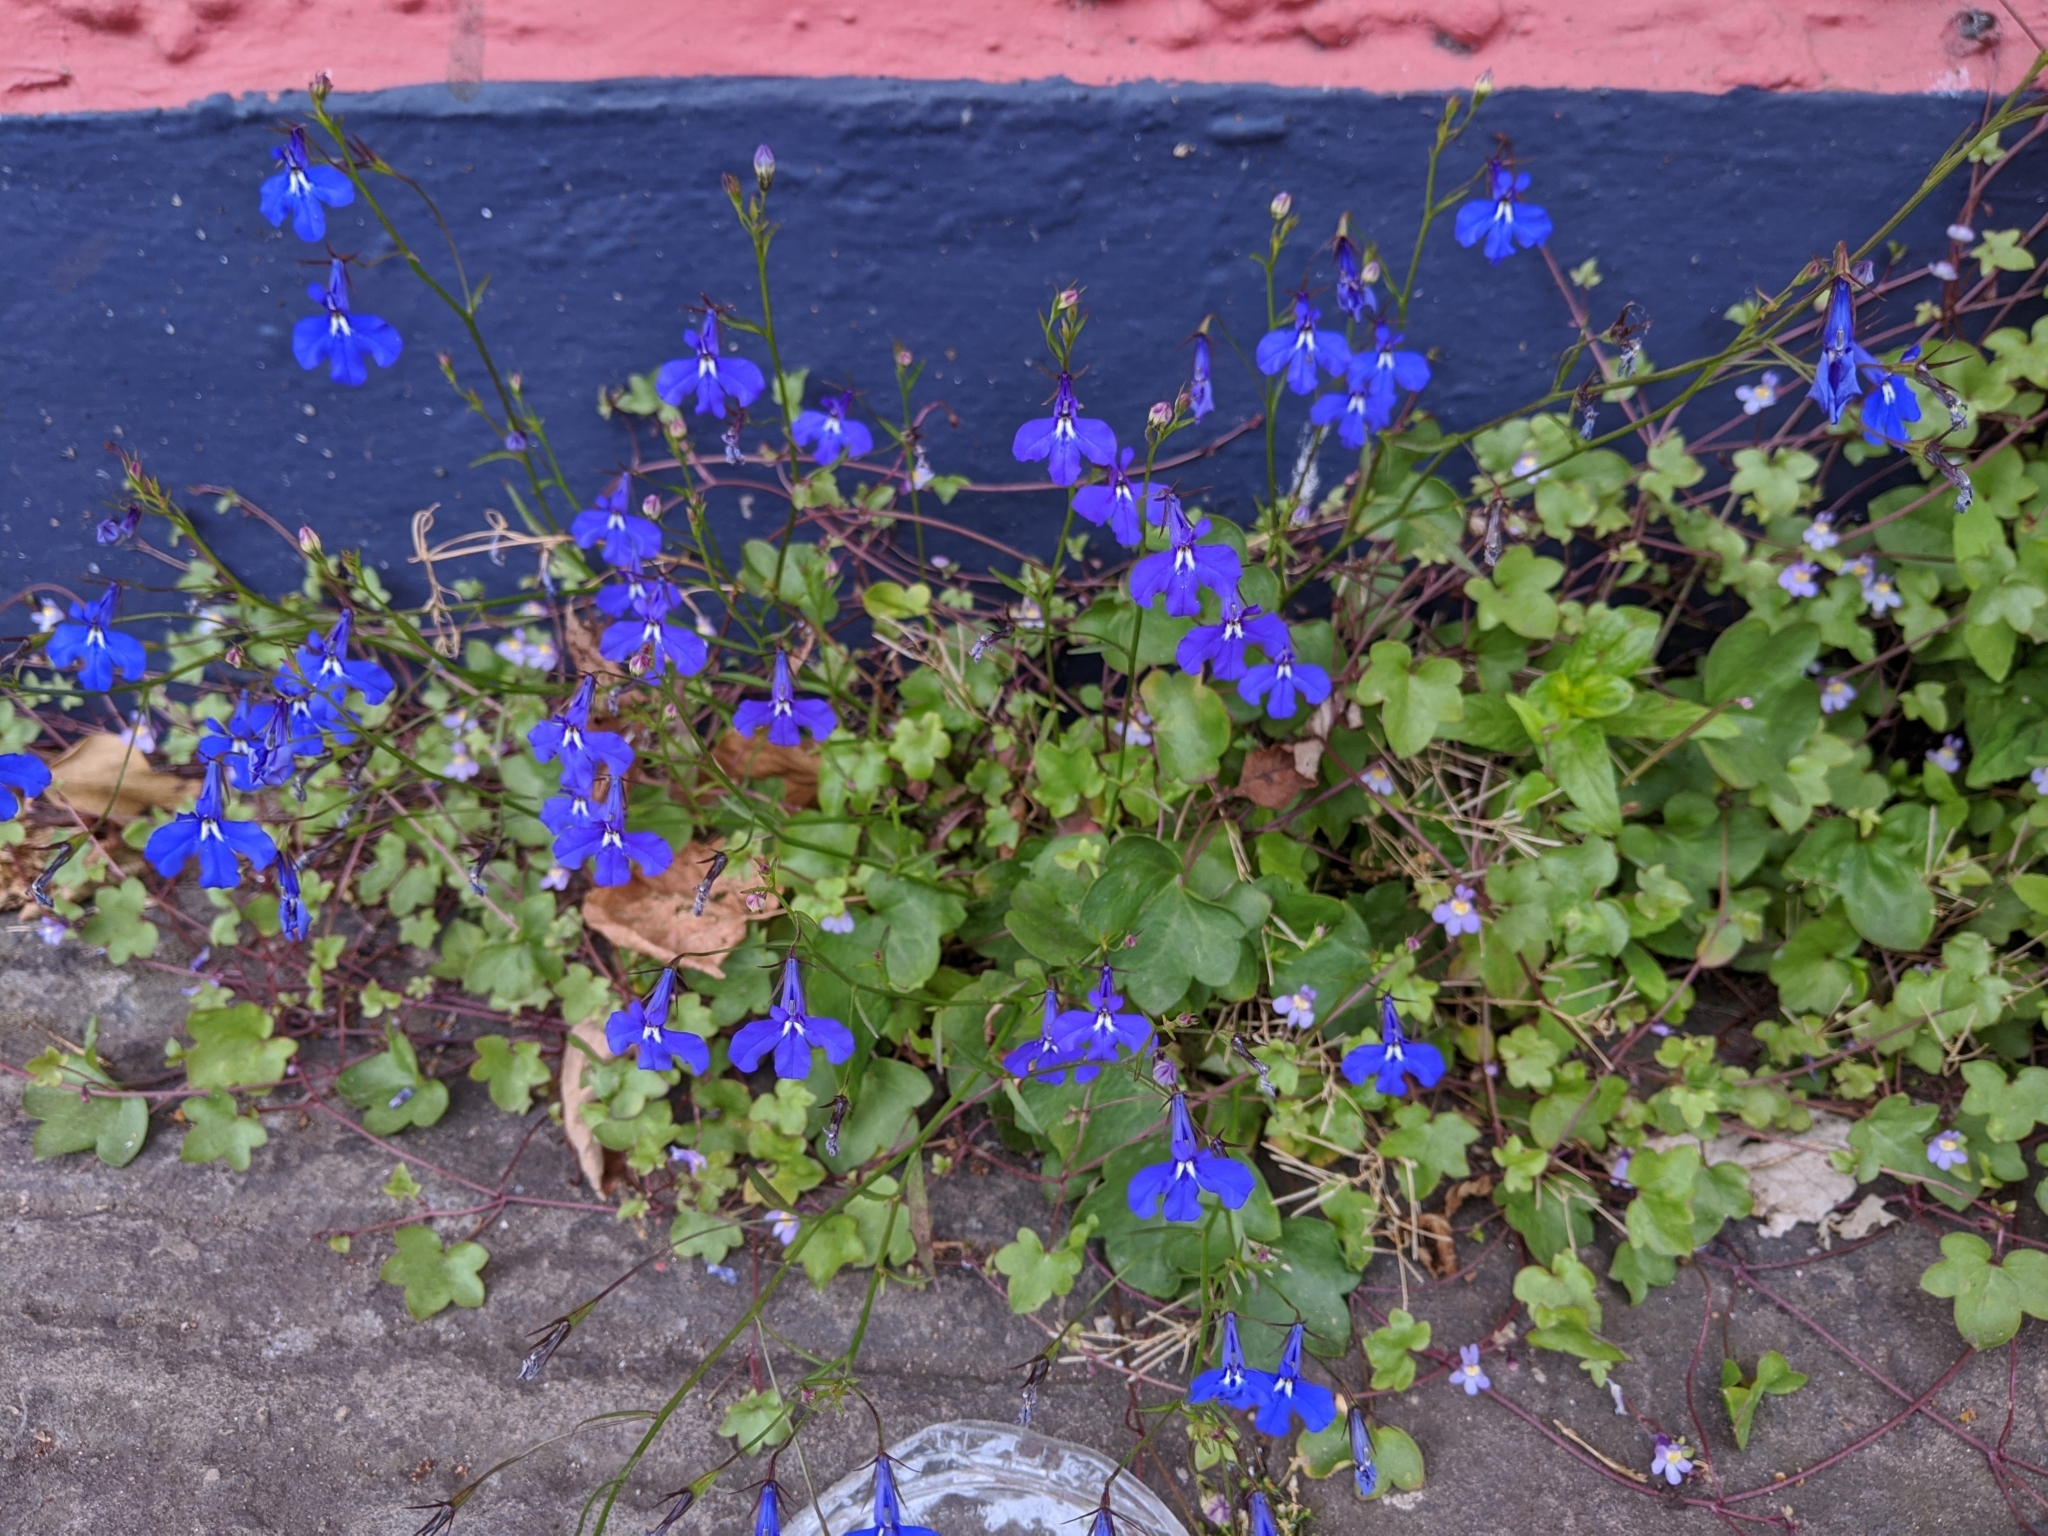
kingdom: Plantae
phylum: Tracheophyta
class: Magnoliopsida
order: Asterales
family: Campanulaceae
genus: Lobelia
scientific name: Lobelia erinus
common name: Edging lobelia
